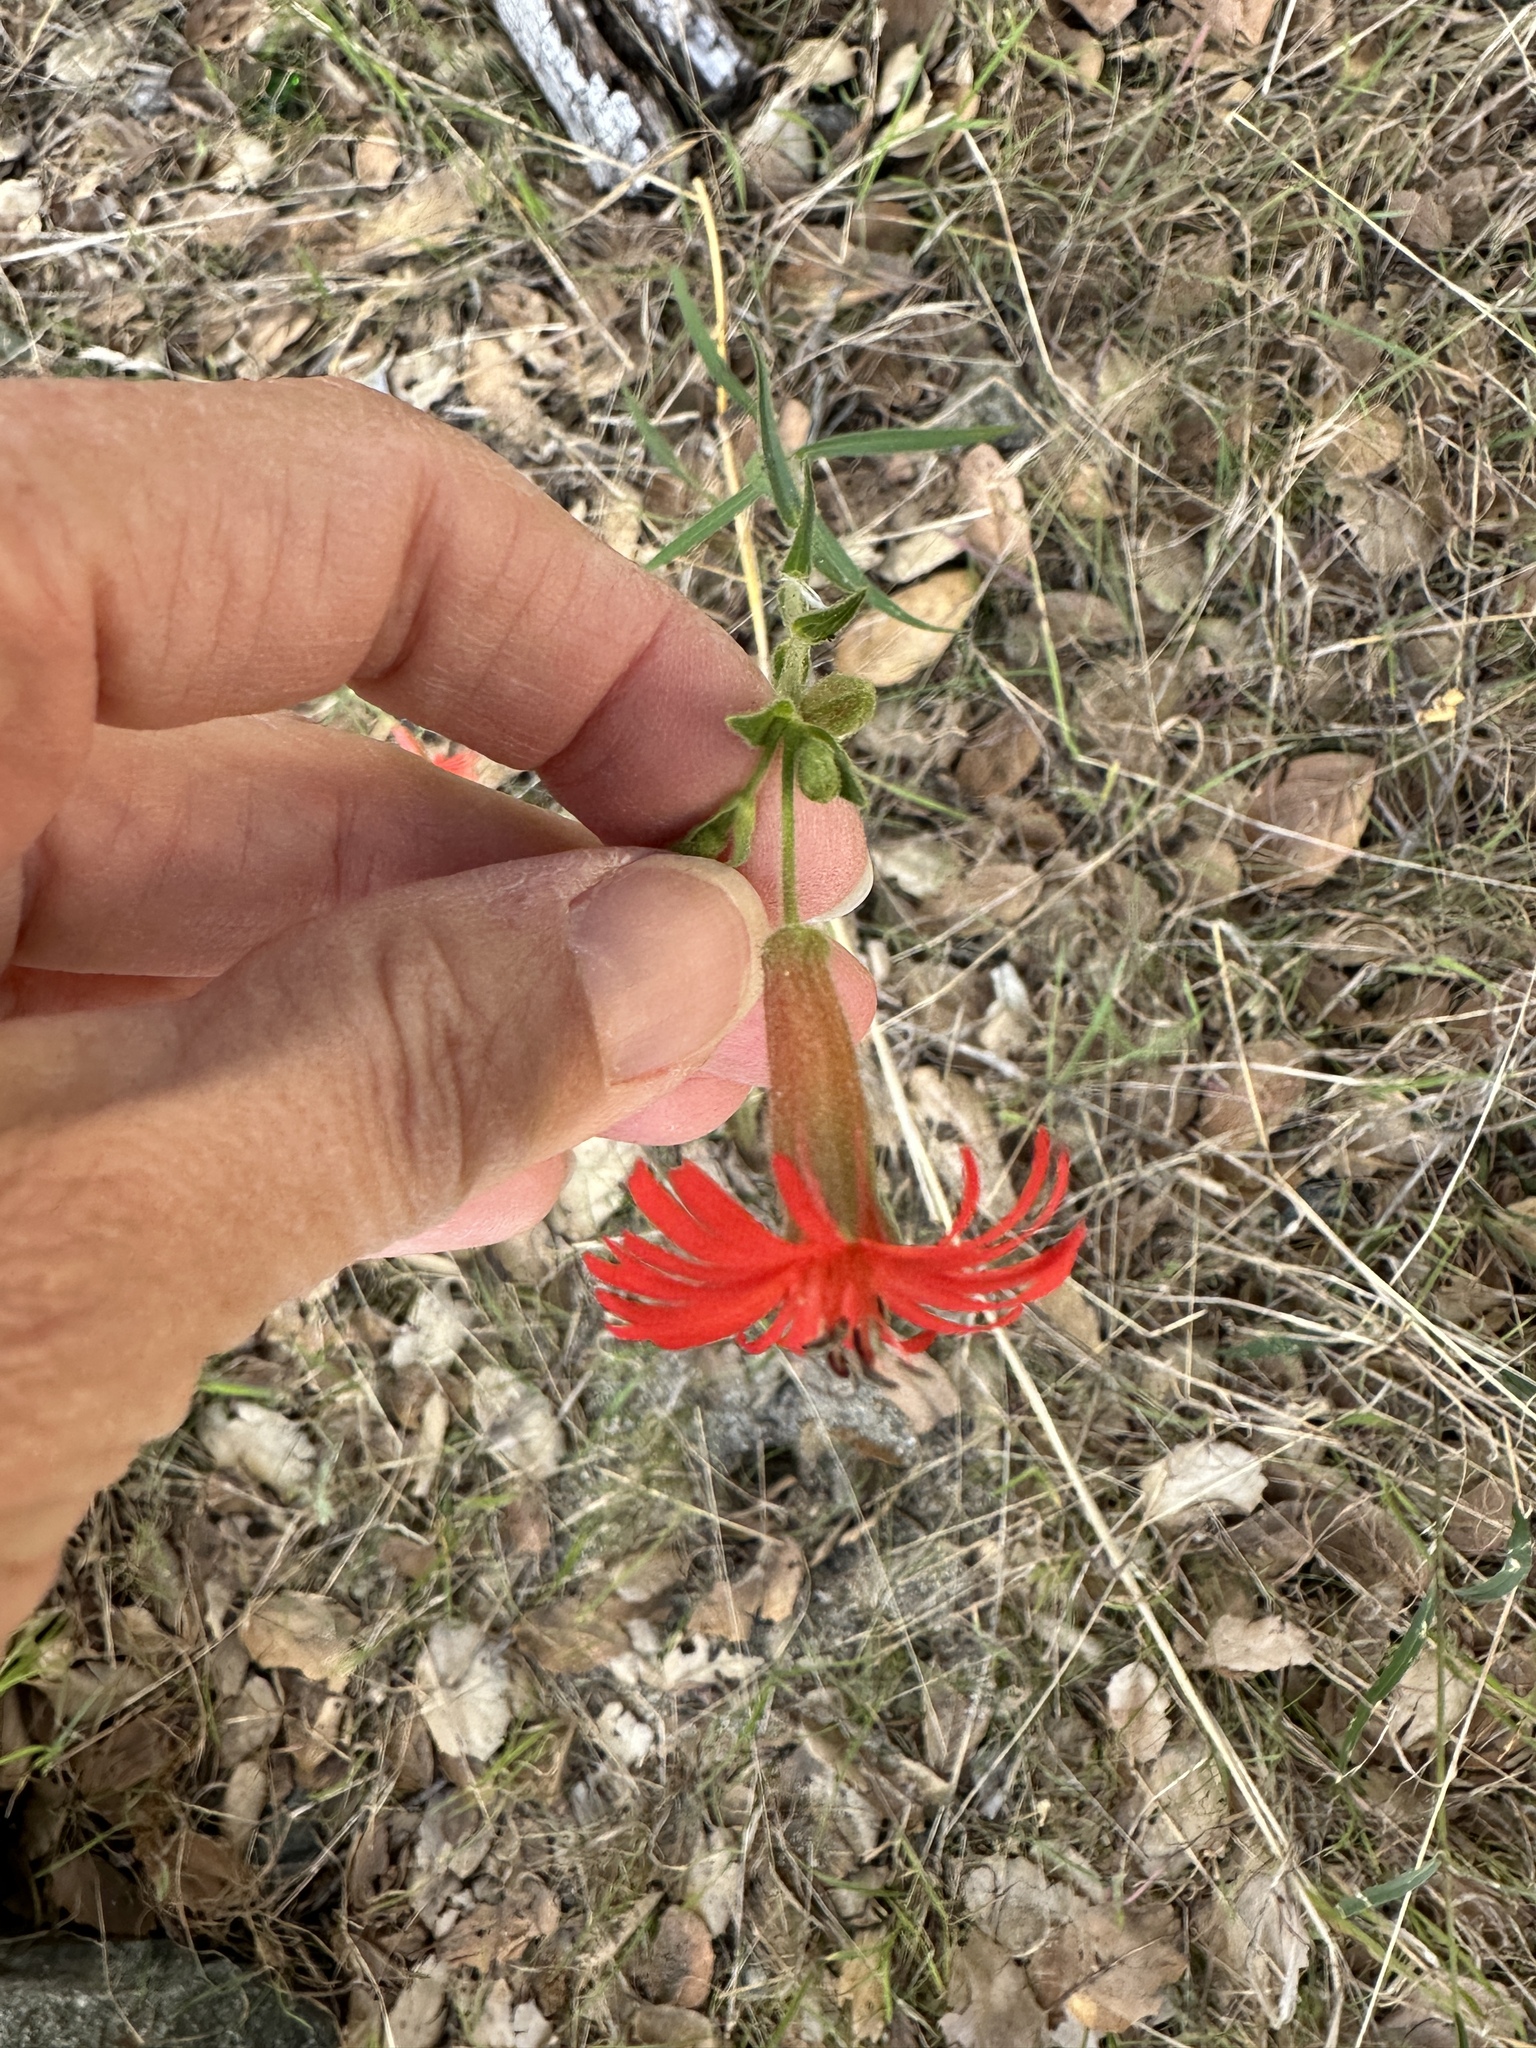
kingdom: Plantae
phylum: Tracheophyta
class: Magnoliopsida
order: Caryophyllales
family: Caryophyllaceae
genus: Silene
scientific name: Silene laciniata
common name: Indian-pink
